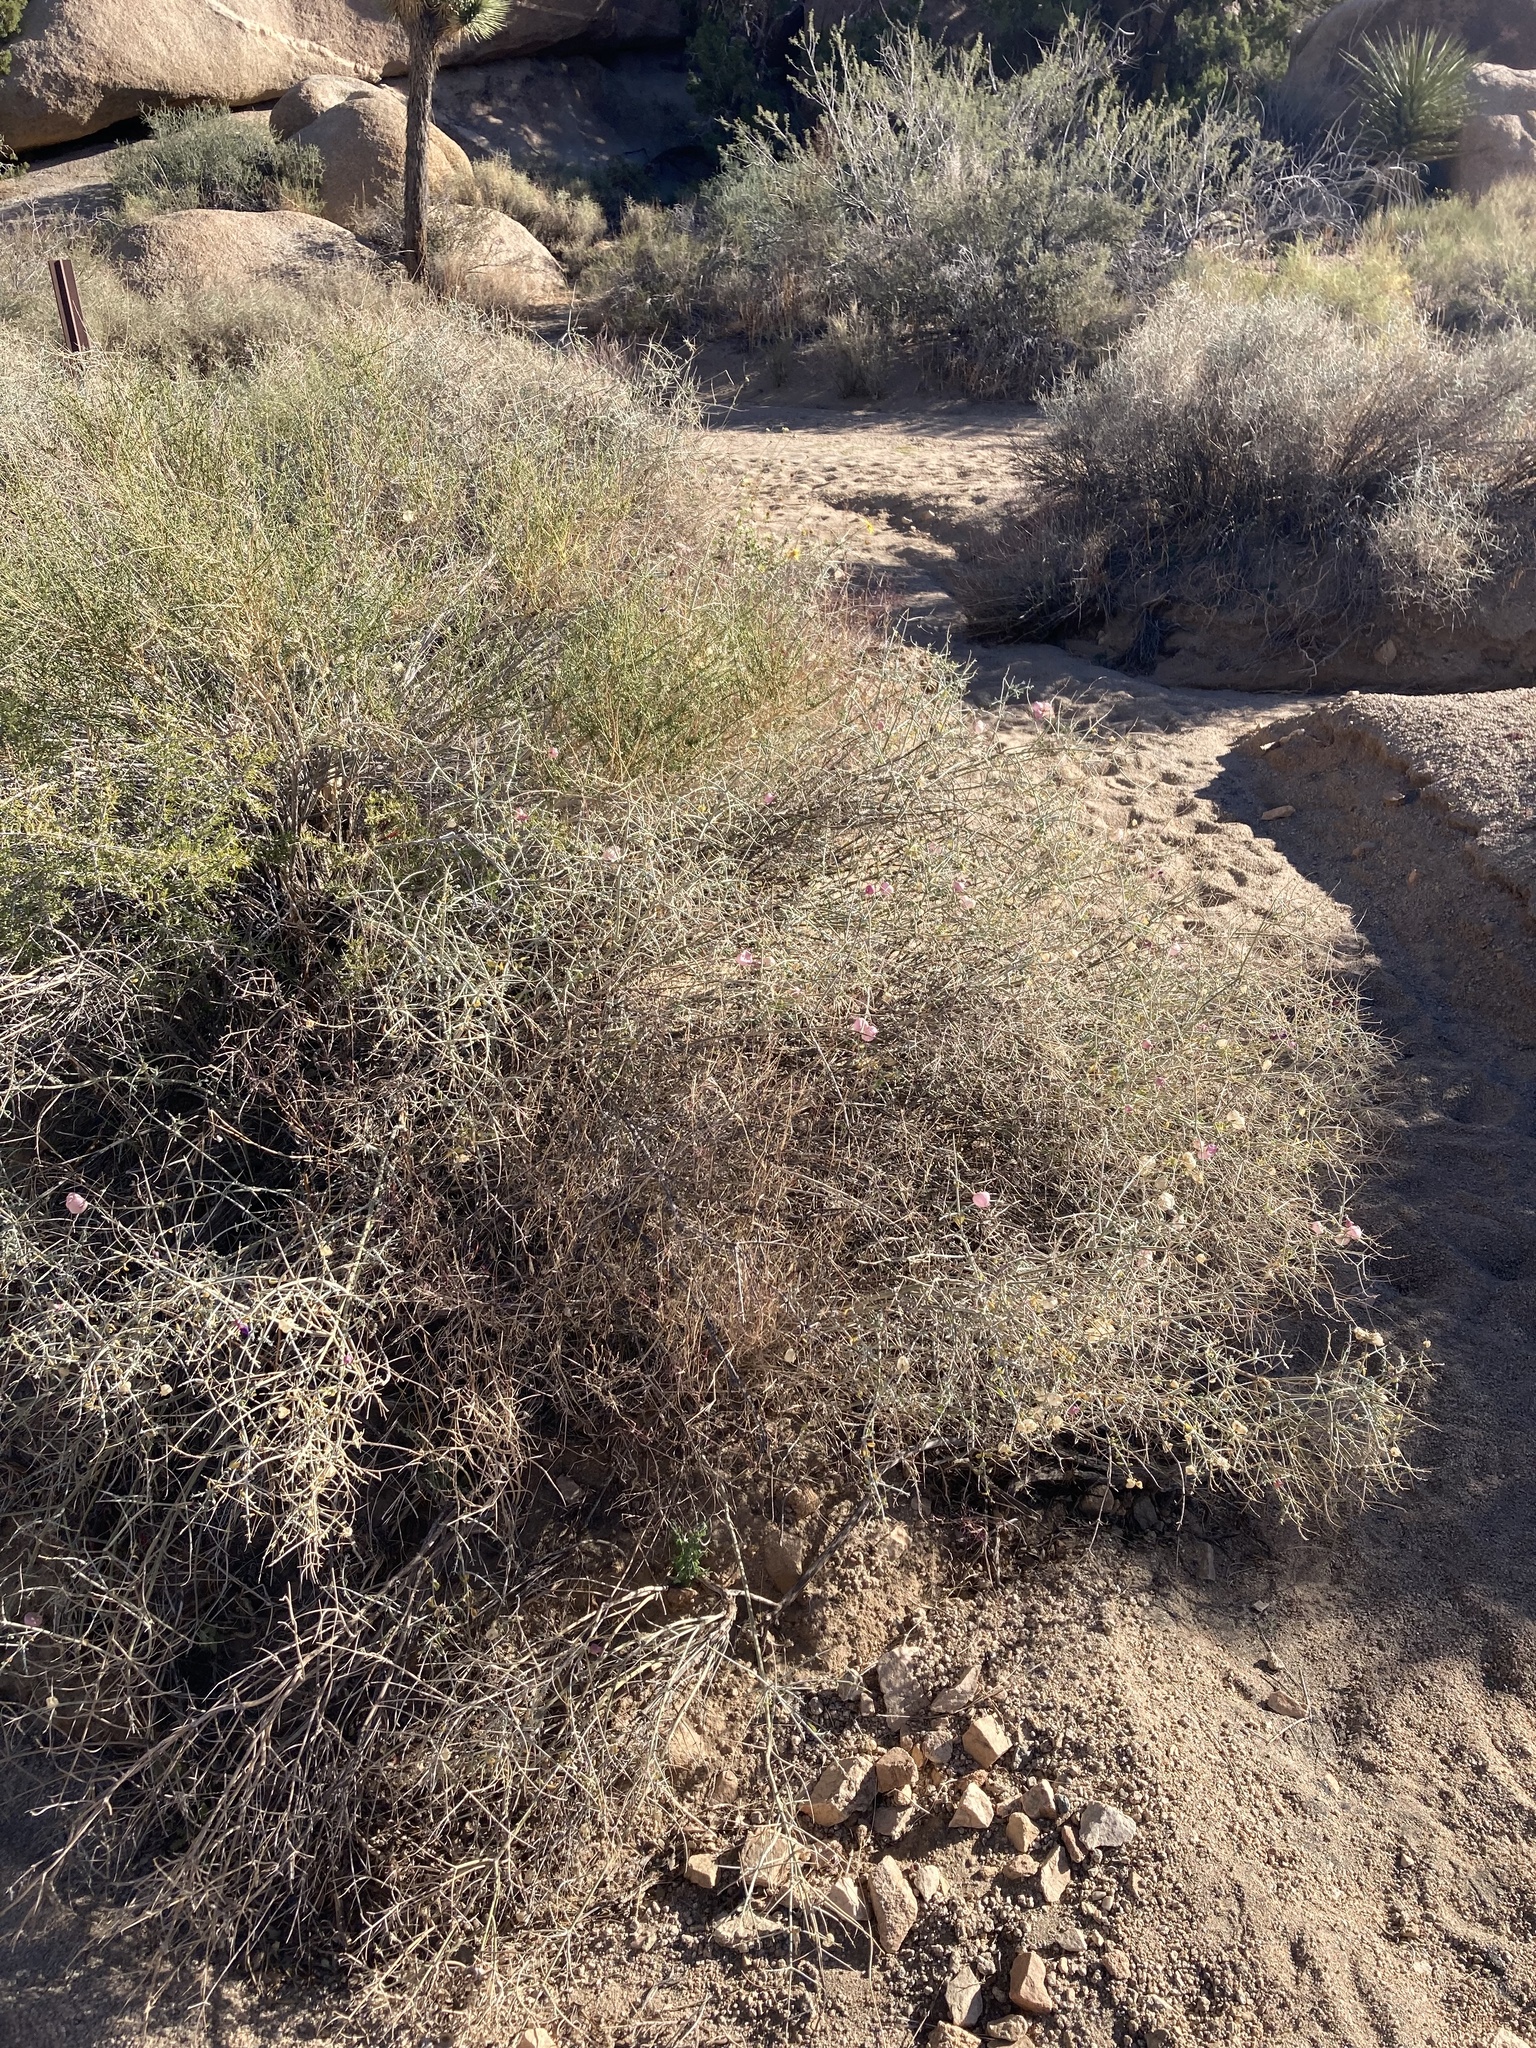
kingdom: Plantae
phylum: Tracheophyta
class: Magnoliopsida
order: Lamiales
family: Lamiaceae
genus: Scutellaria
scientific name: Scutellaria mexicana
